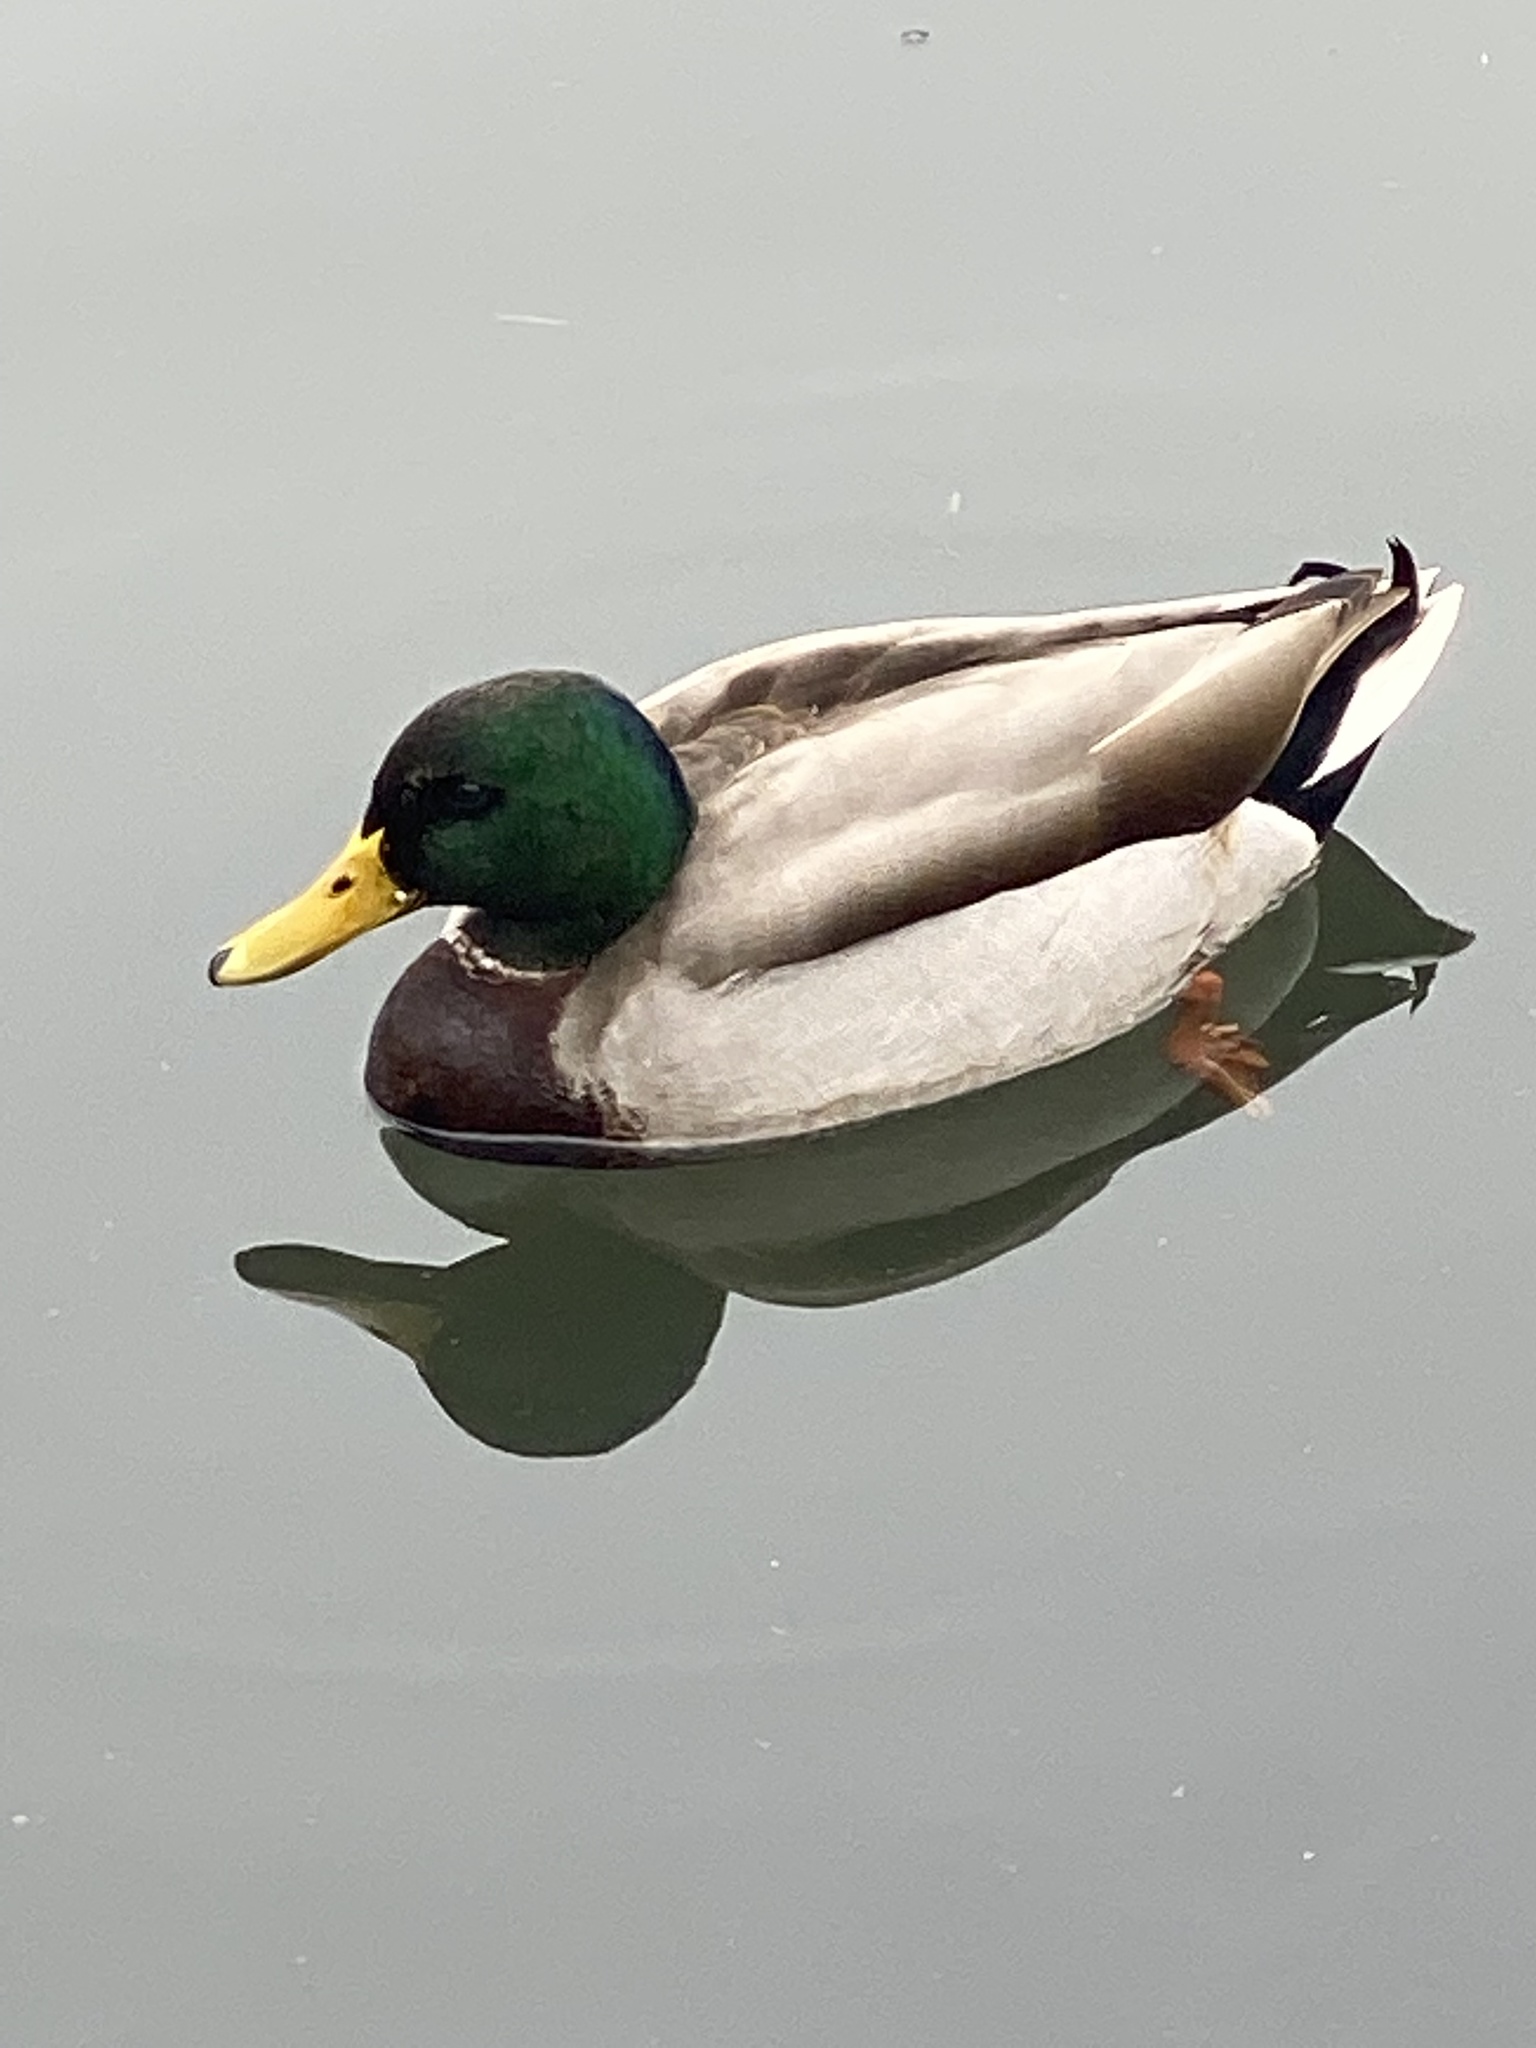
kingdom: Animalia
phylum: Chordata
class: Aves
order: Anseriformes
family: Anatidae
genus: Anas
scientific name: Anas platyrhynchos
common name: Mallard
